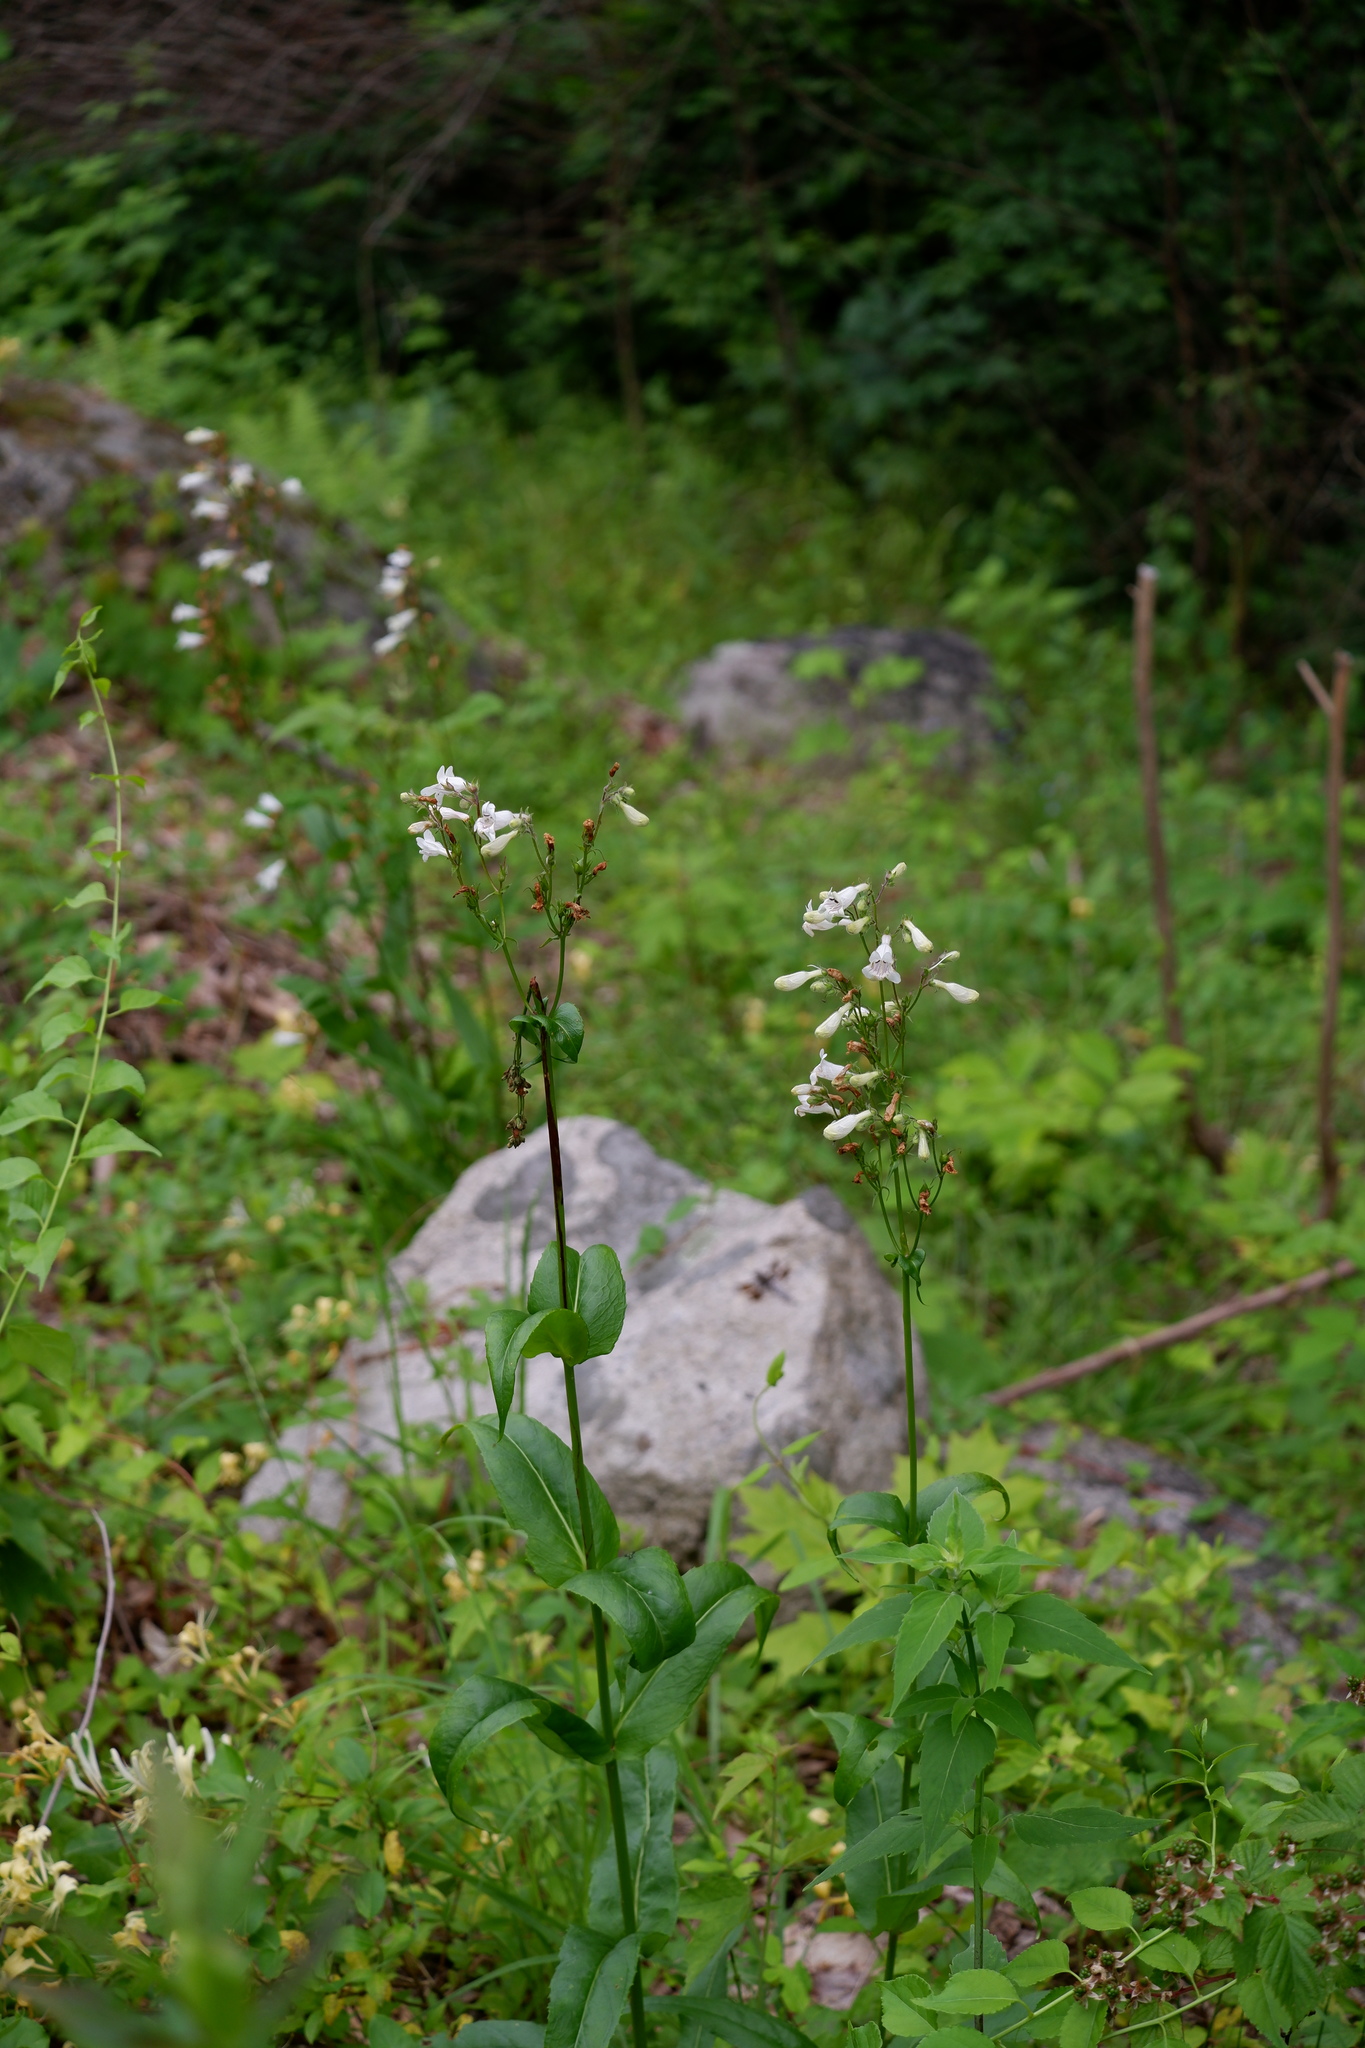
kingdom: Plantae
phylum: Tracheophyta
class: Magnoliopsida
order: Lamiales
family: Plantaginaceae
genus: Penstemon
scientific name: Penstemon digitalis
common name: Foxglove beardtongue
